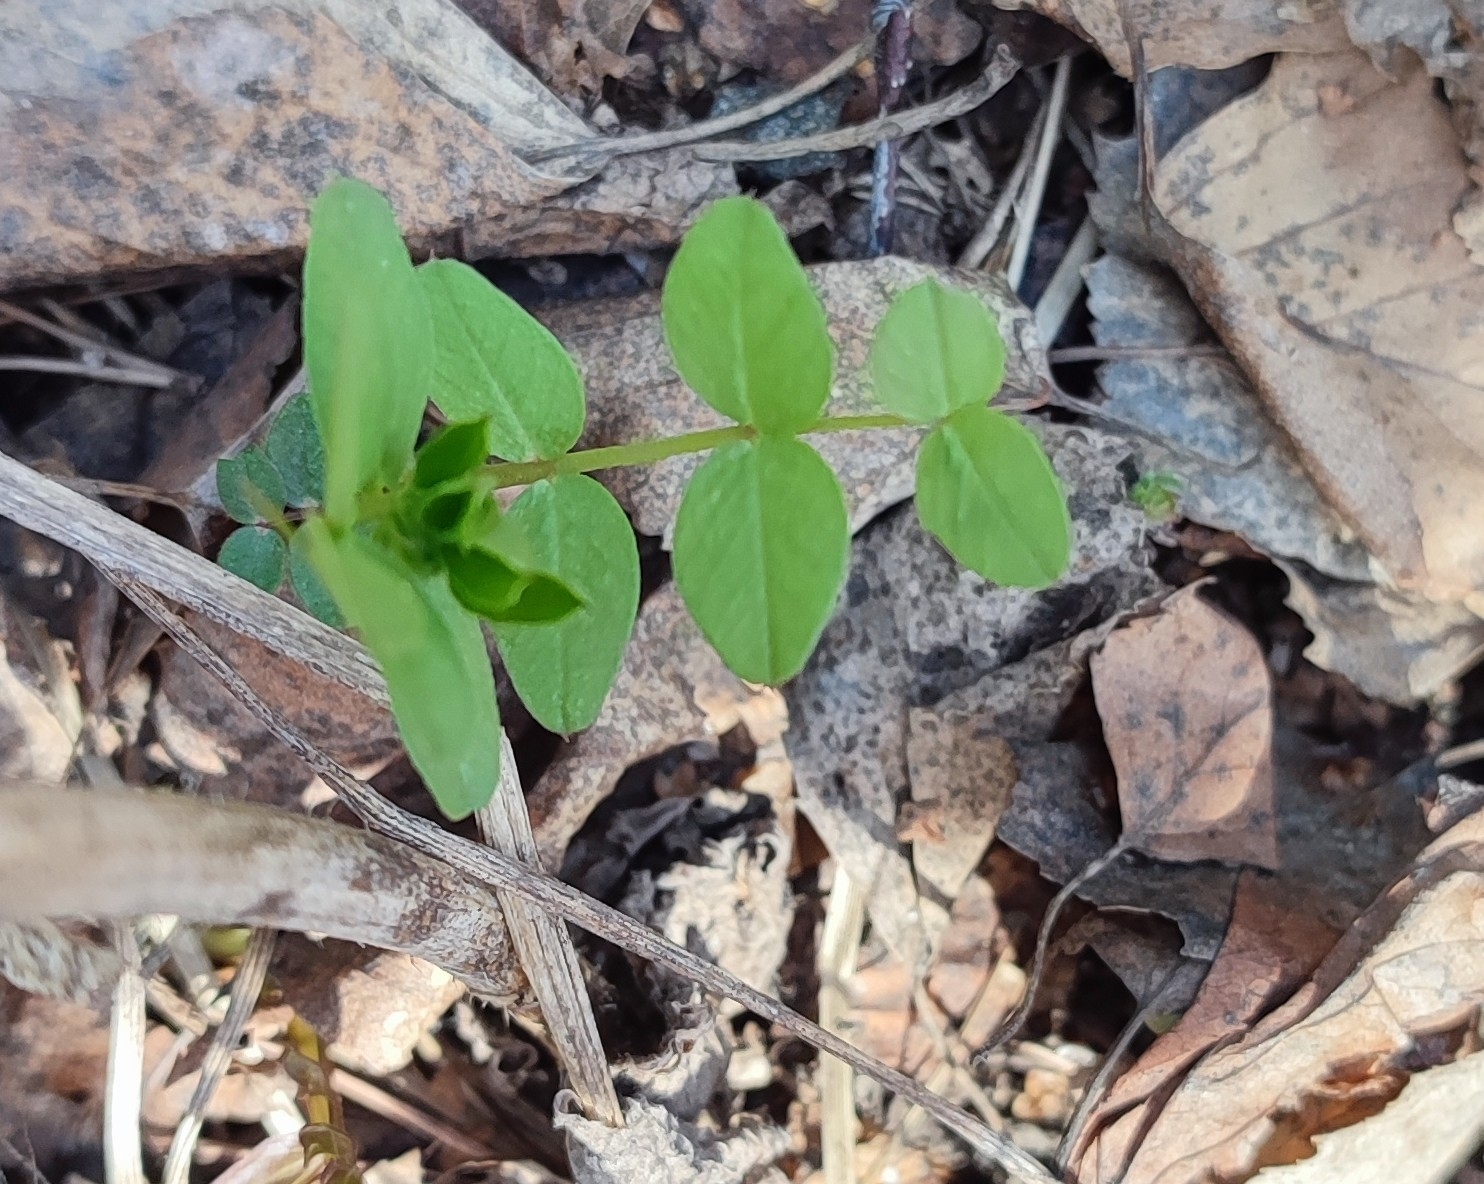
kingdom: Plantae
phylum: Tracheophyta
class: Magnoliopsida
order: Fabales
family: Fabaceae
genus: Vicia
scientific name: Vicia sepium
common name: Bush vetch
